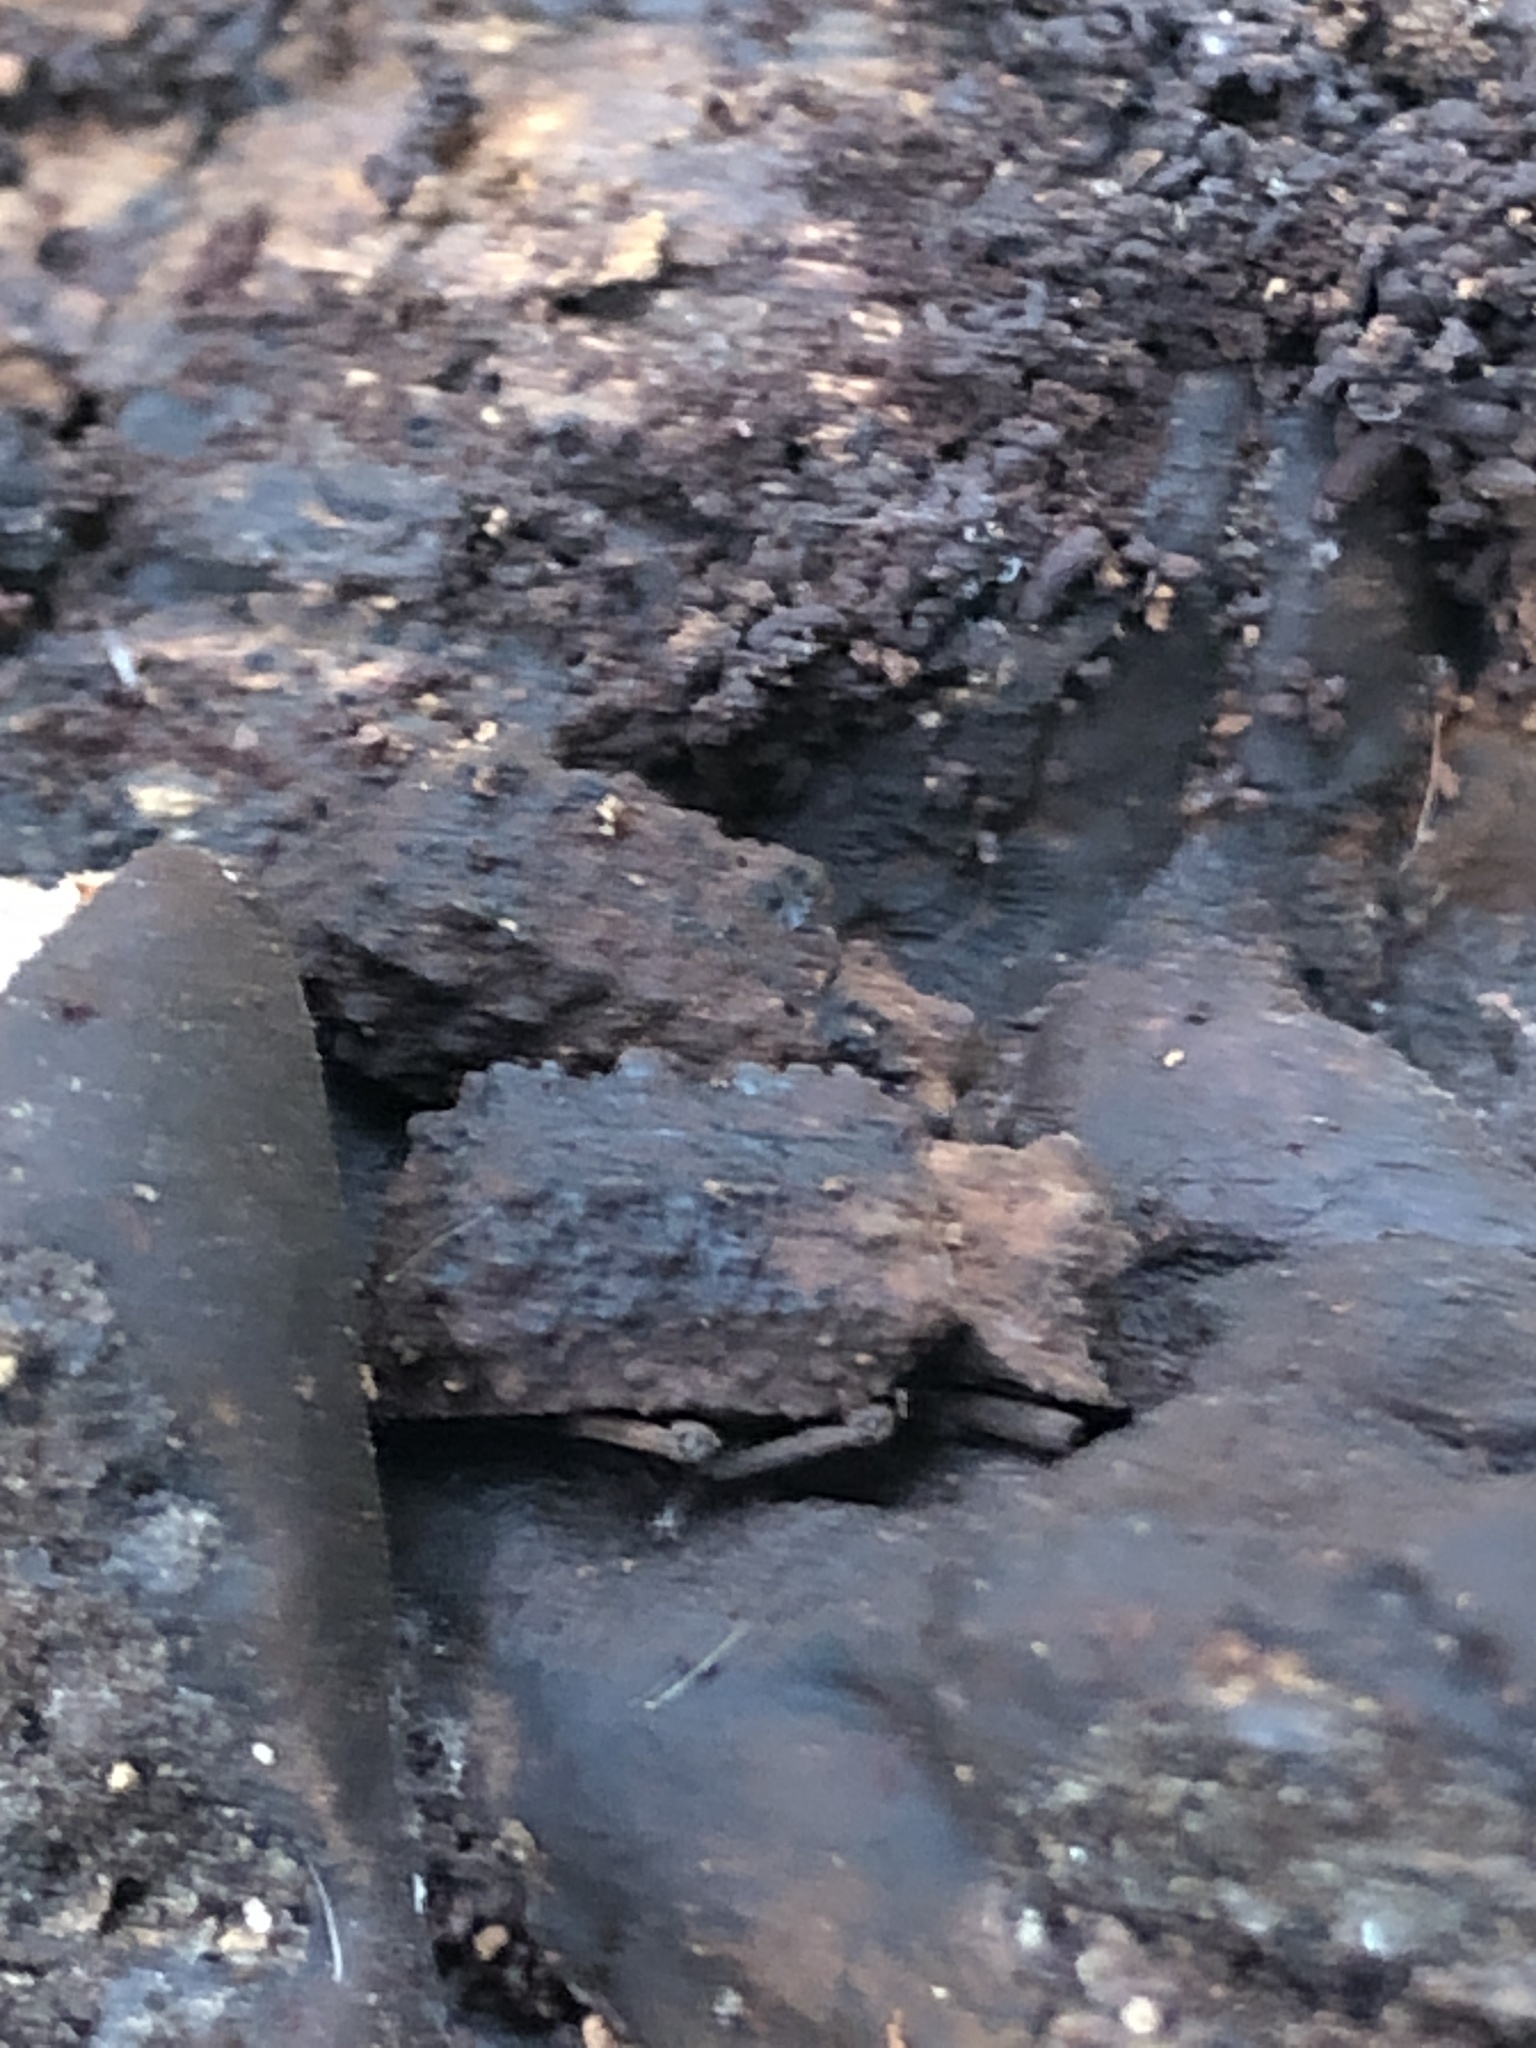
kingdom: Animalia
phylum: Arthropoda
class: Insecta
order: Coleoptera
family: Tenebrionidae
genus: Gnatocerus
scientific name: Gnatocerus cornutus
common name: Broad-horned flour beetle
